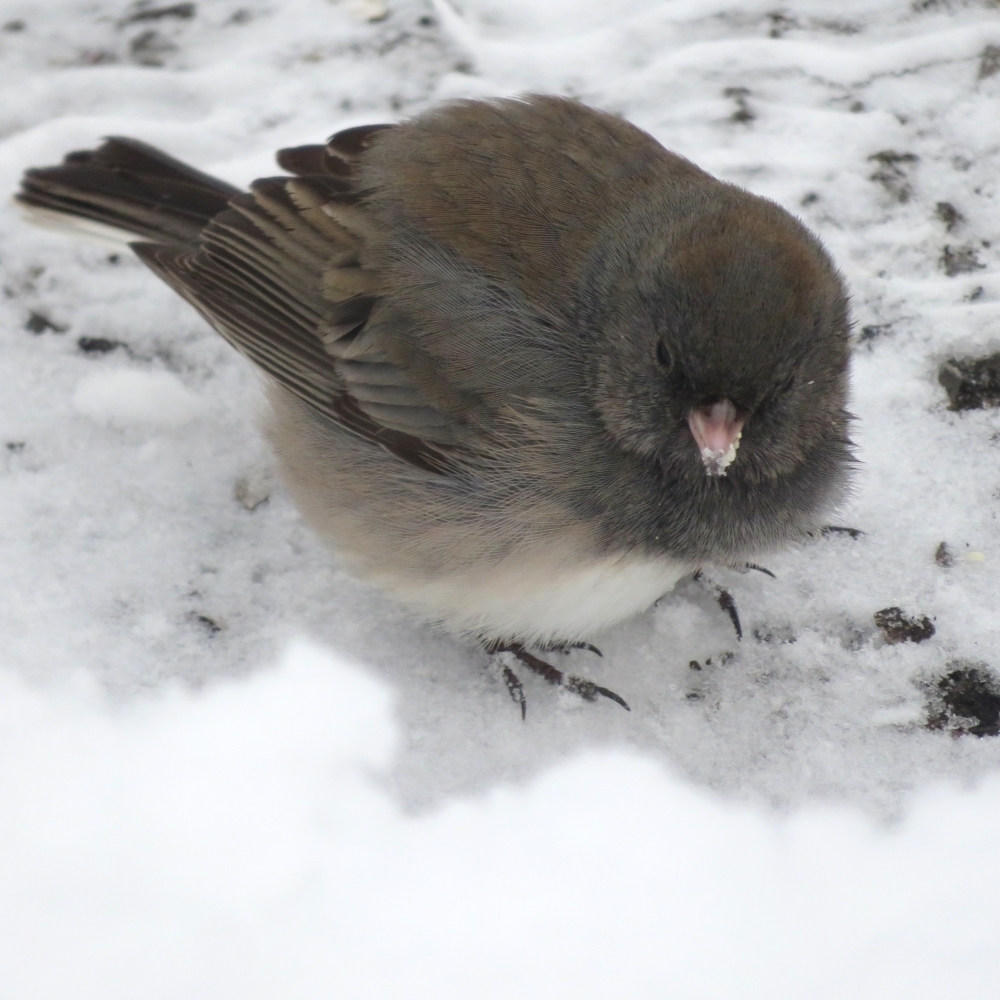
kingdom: Animalia
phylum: Chordata
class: Aves
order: Passeriformes
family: Passerellidae
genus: Junco
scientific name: Junco hyemalis
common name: Dark-eyed junco
